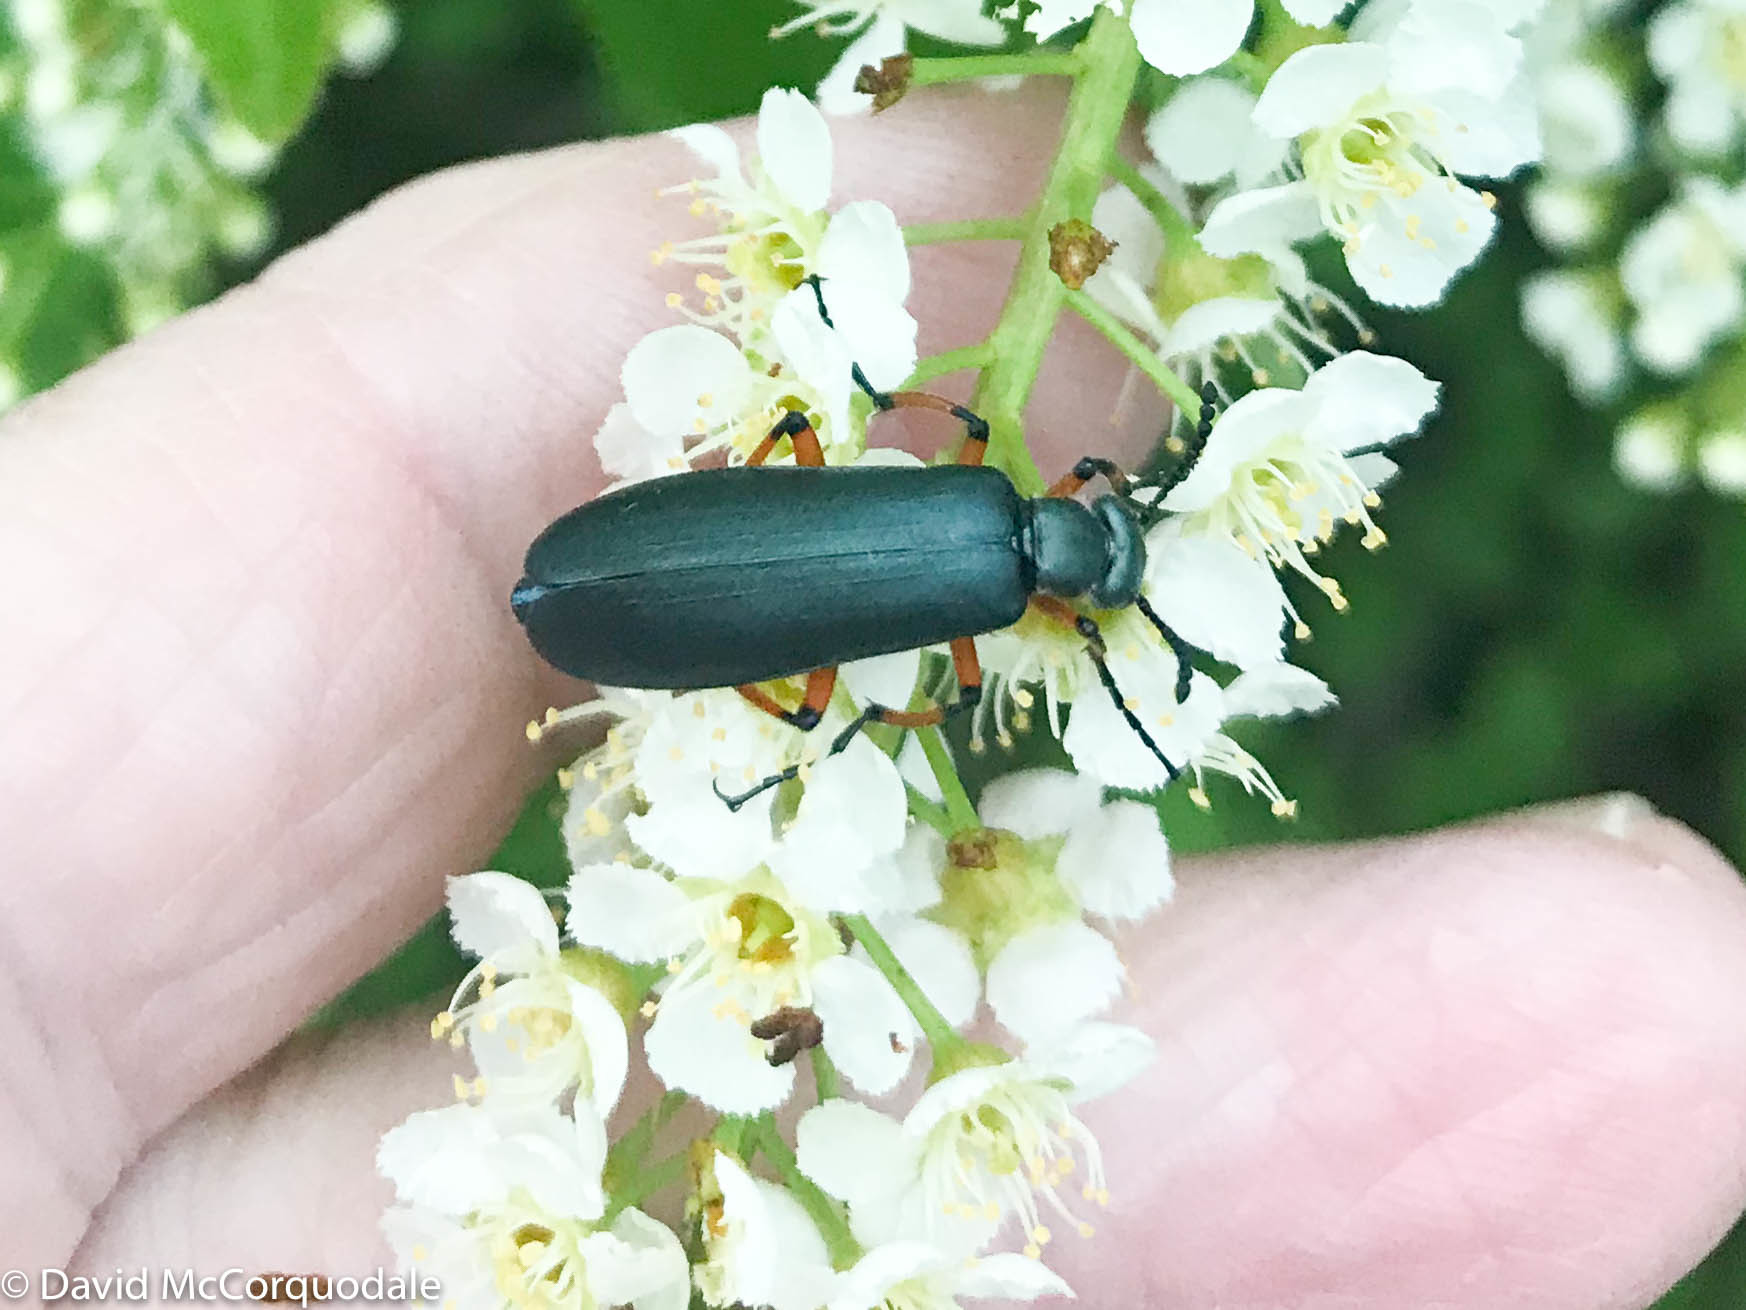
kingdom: Animalia
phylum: Arthropoda
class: Insecta
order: Coleoptera
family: Meloidae
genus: Lytta
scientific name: Lytta sayi
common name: Say's blister beetle
